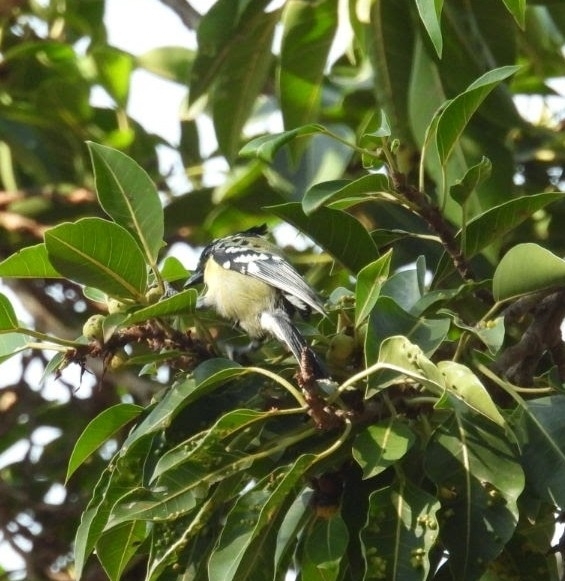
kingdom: Animalia
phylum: Chordata
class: Aves
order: Passeriformes
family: Paridae
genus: Parus
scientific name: Parus aplonotus
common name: Indian black-lored tit
